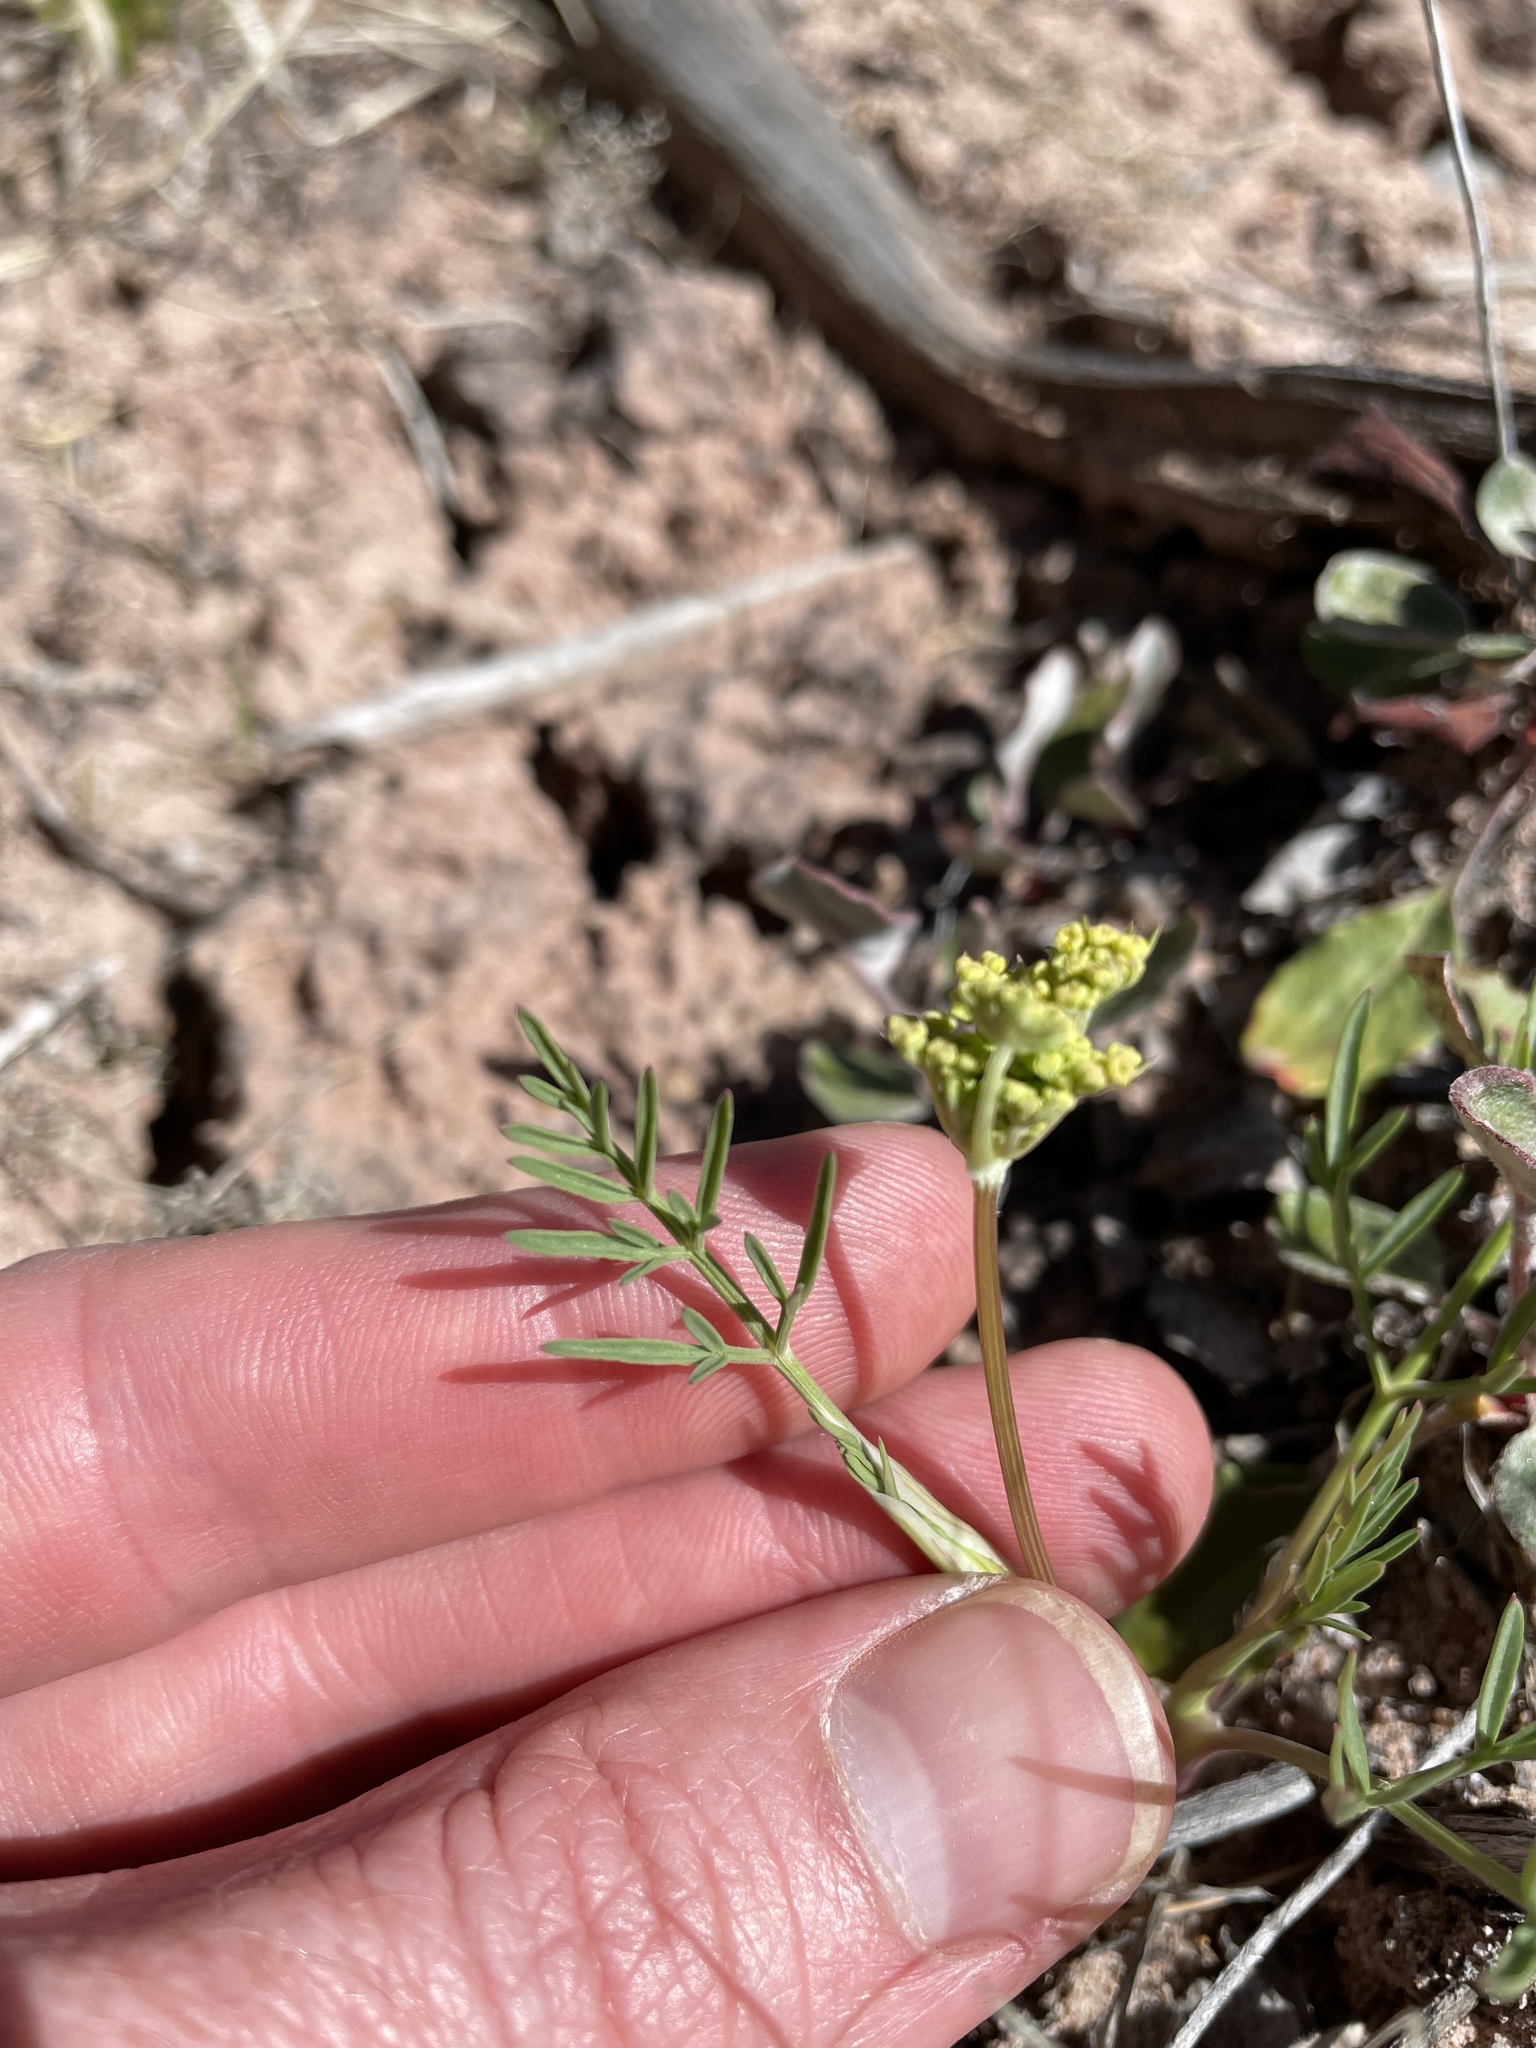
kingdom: Plantae
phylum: Tracheophyta
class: Magnoliopsida
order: Apiales
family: Apiaceae
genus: Cymopterus
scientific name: Cymopterus lemmonii
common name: Lemmon's spring-parsley
